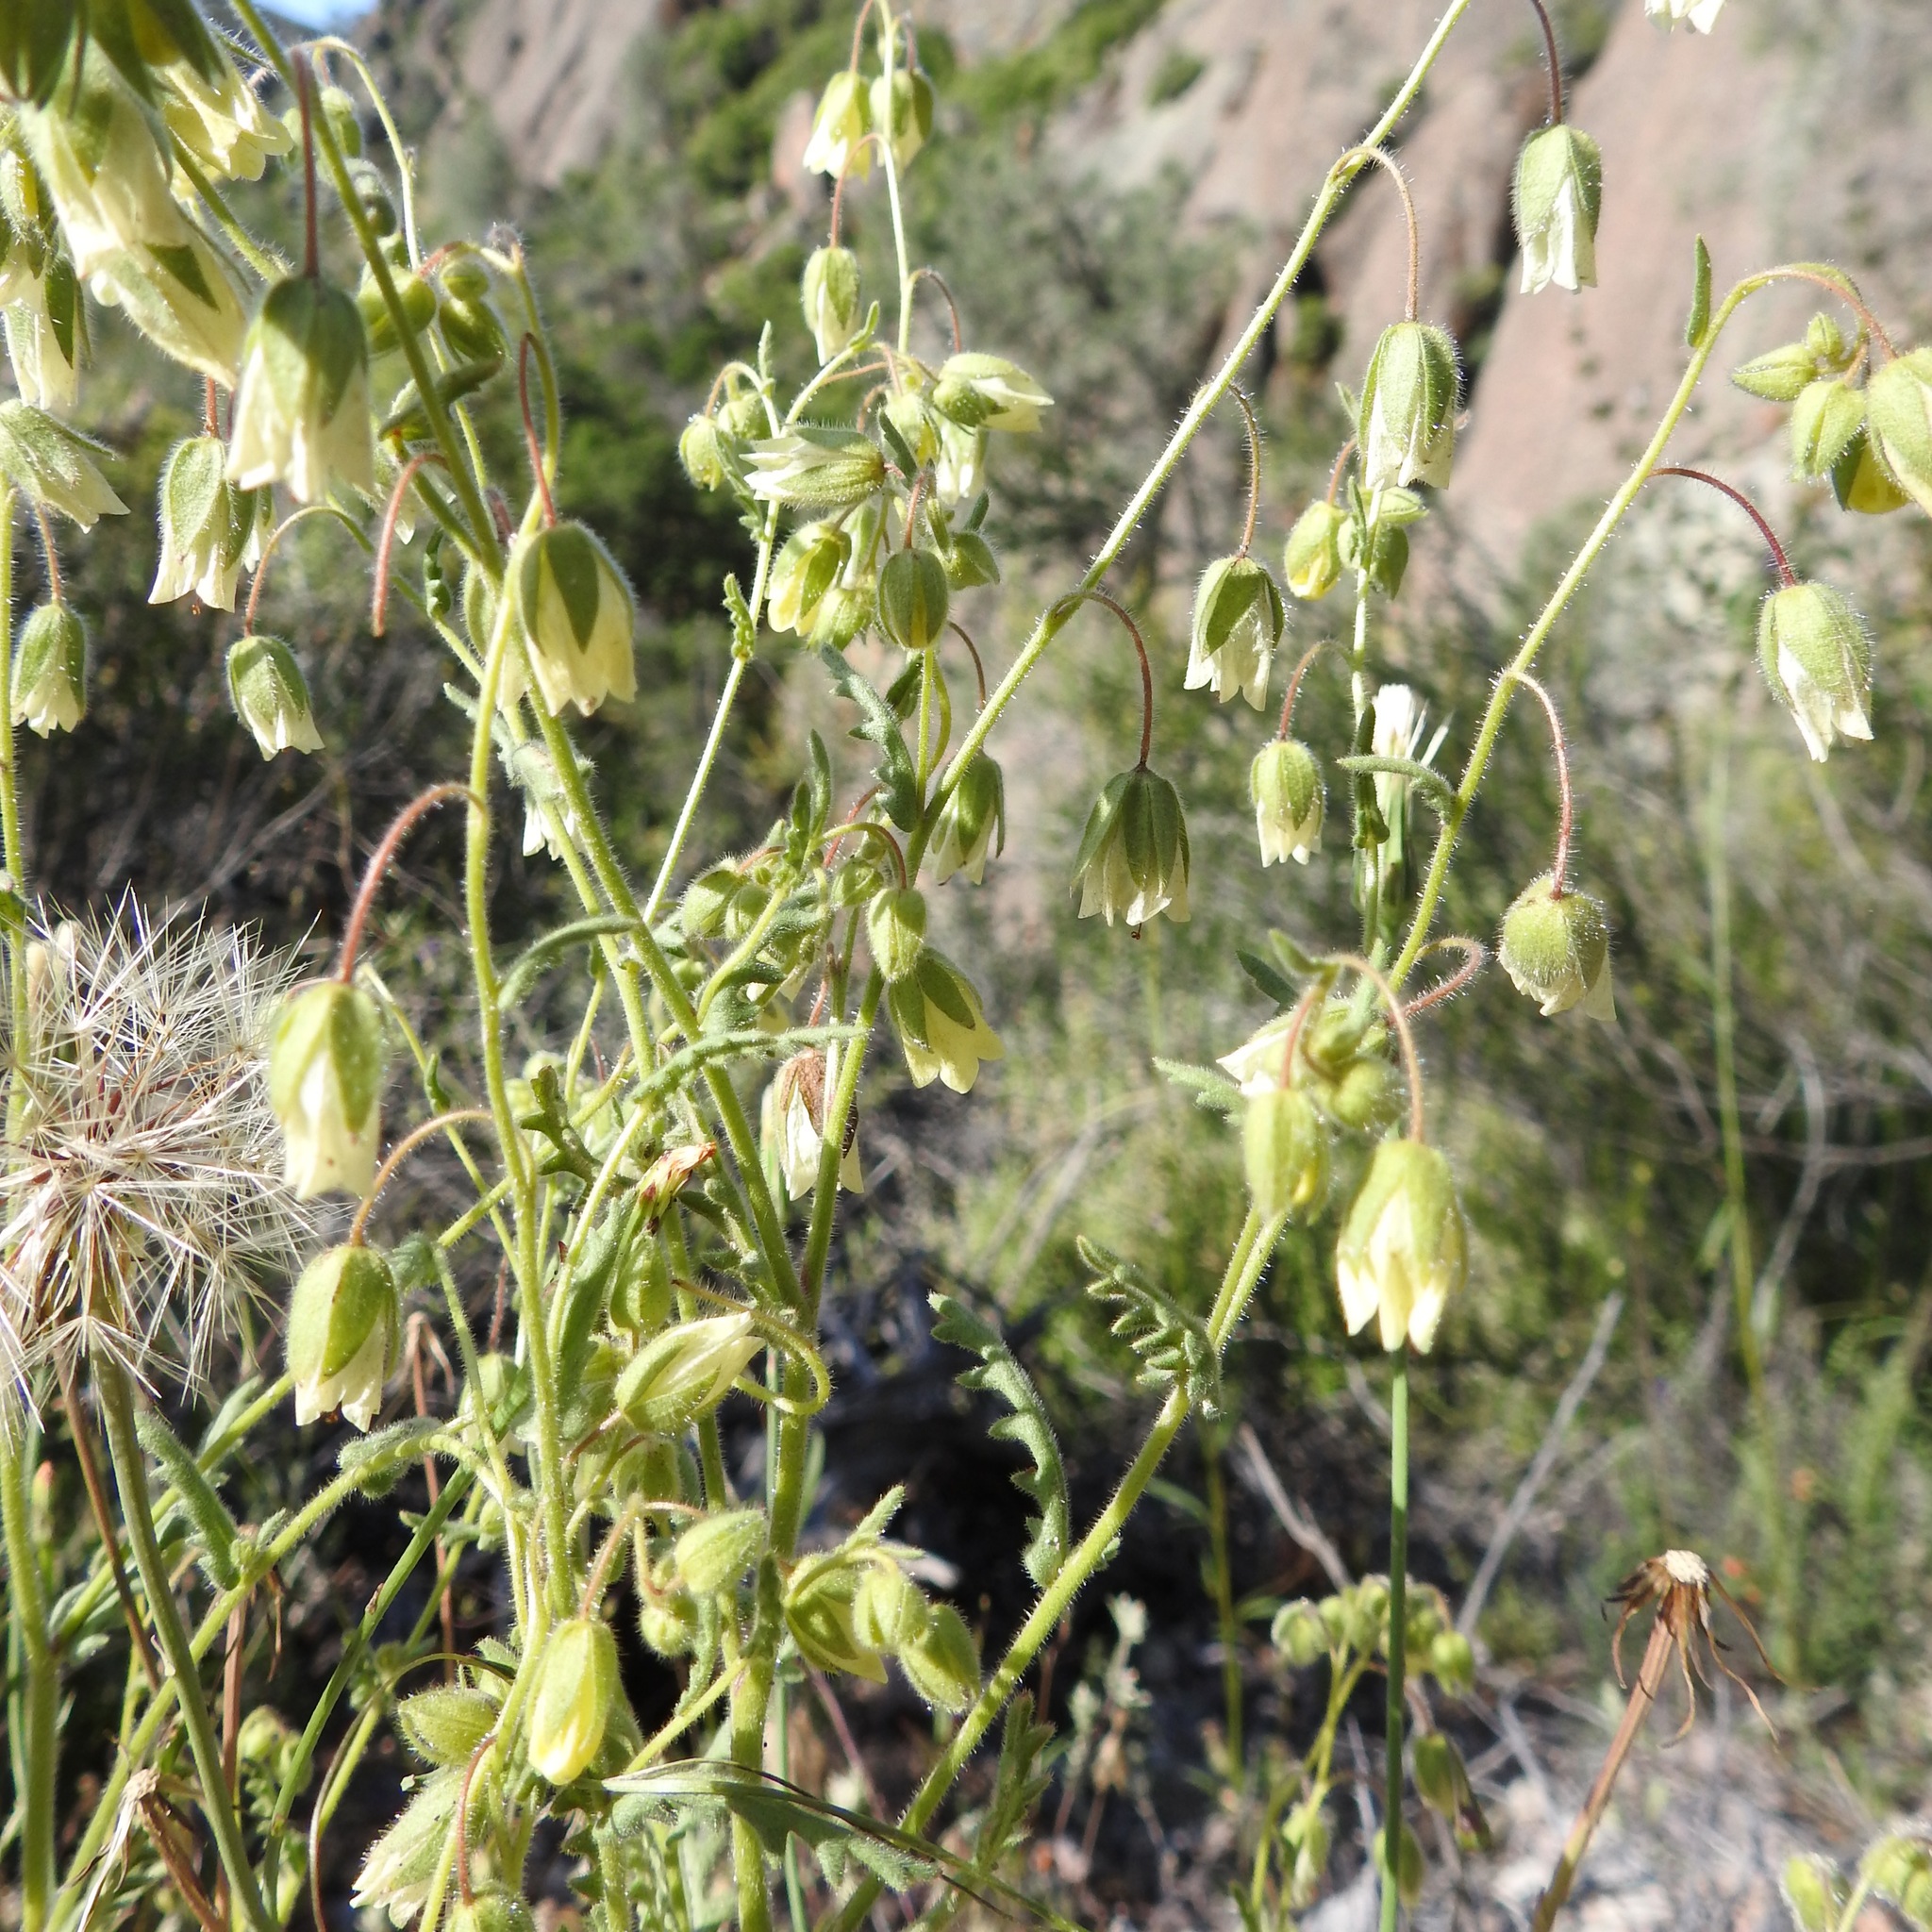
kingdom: Plantae
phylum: Tracheophyta
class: Magnoliopsida
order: Boraginales
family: Hydrophyllaceae
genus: Emmenanthe
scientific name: Emmenanthe penduliflora
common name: Whispering-bells
